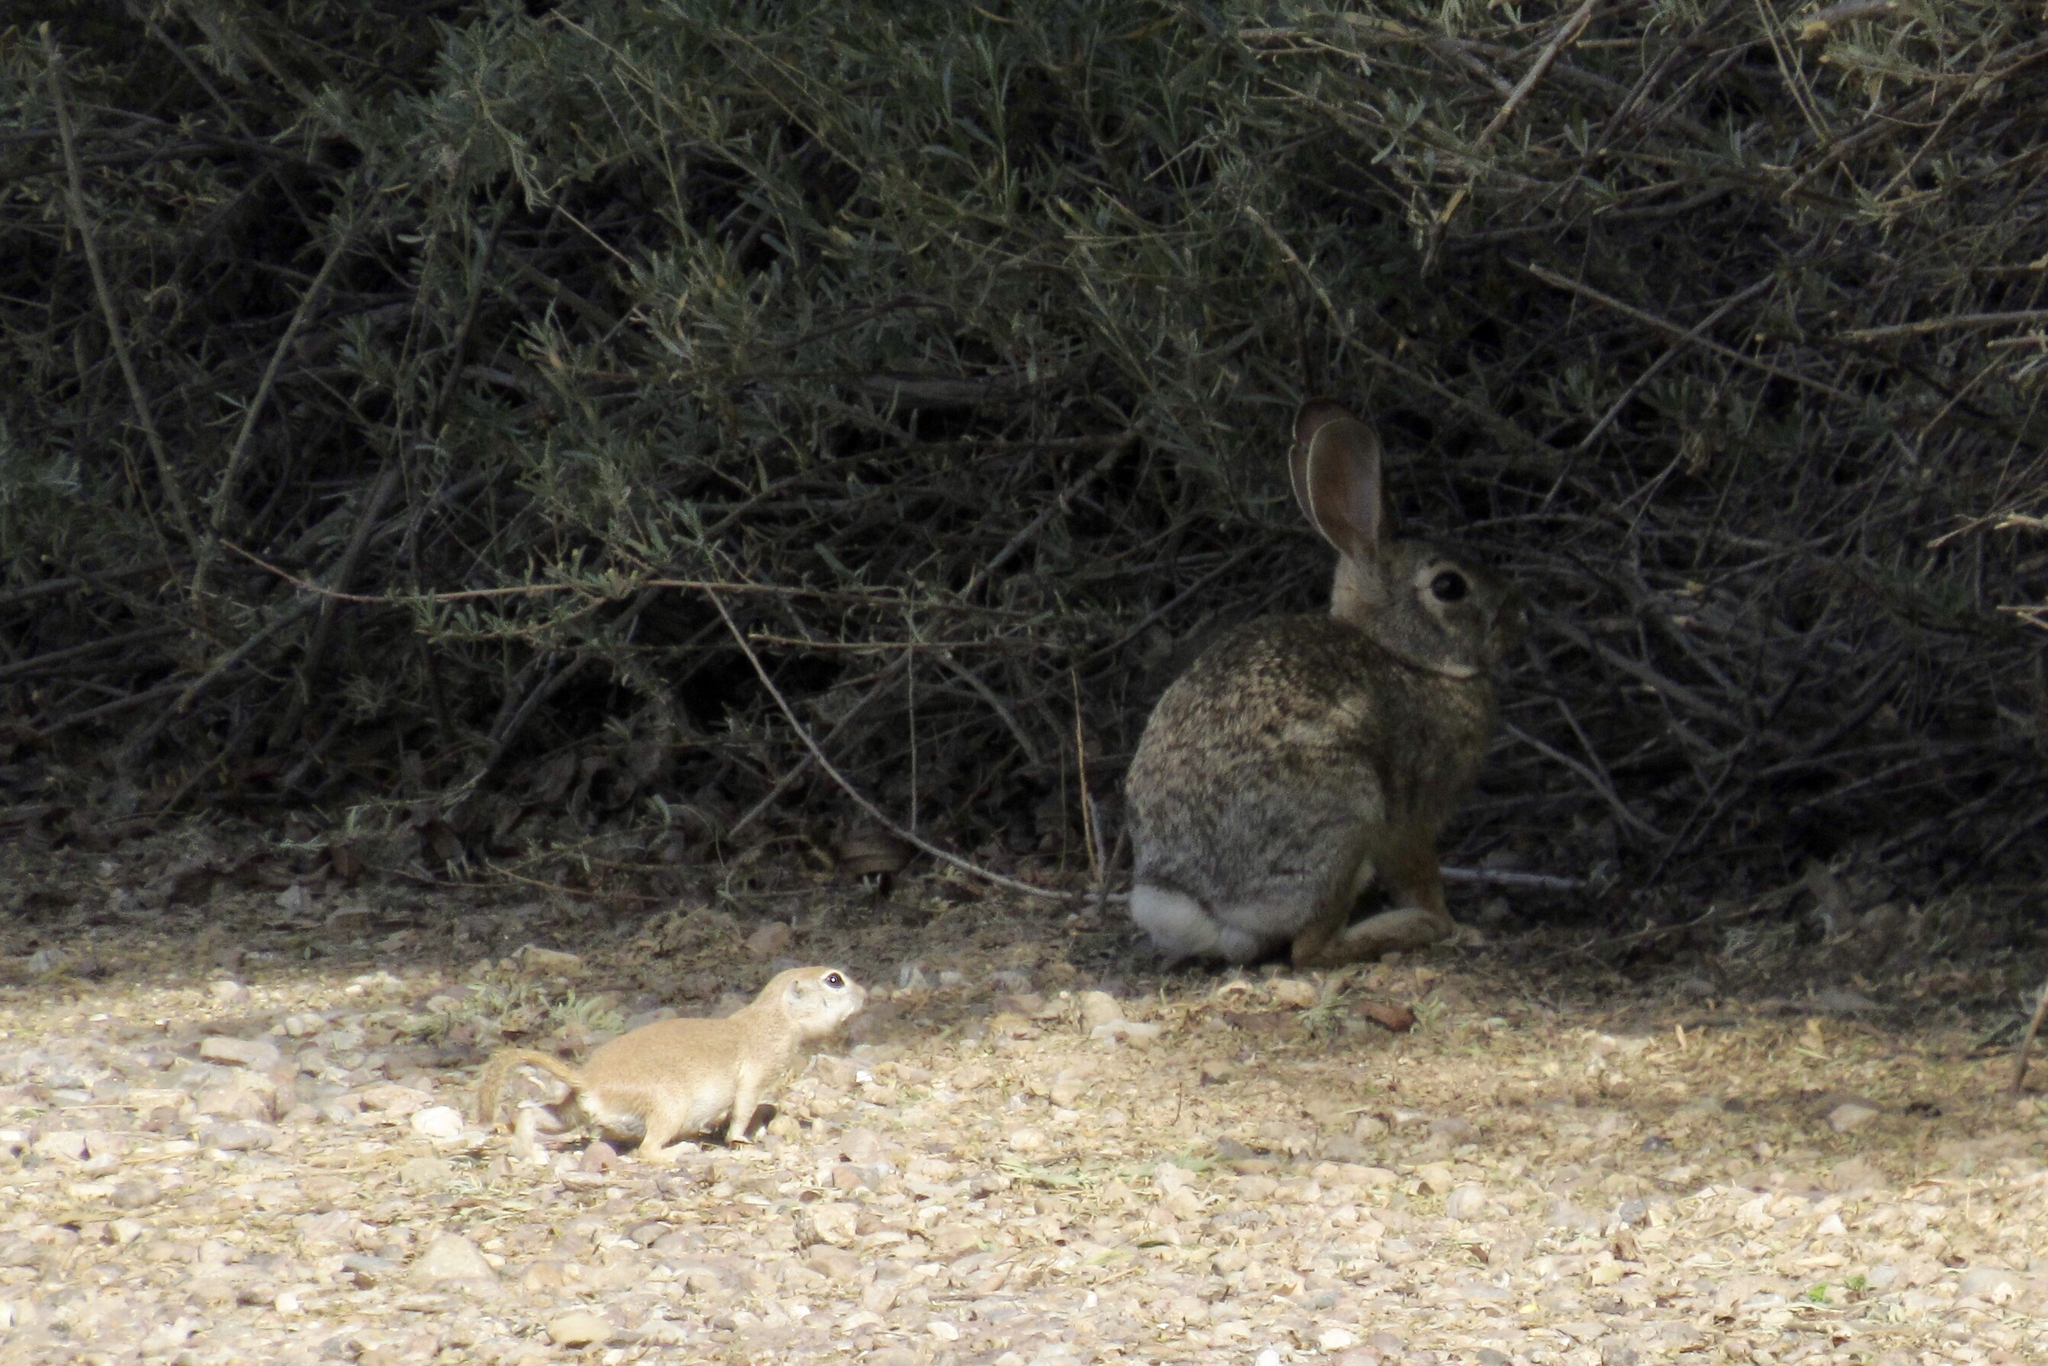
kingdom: Animalia
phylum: Chordata
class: Mammalia
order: Rodentia
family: Sciuridae
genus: Xerospermophilus
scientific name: Xerospermophilus tereticaudus
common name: Round-tailed ground squirrel
